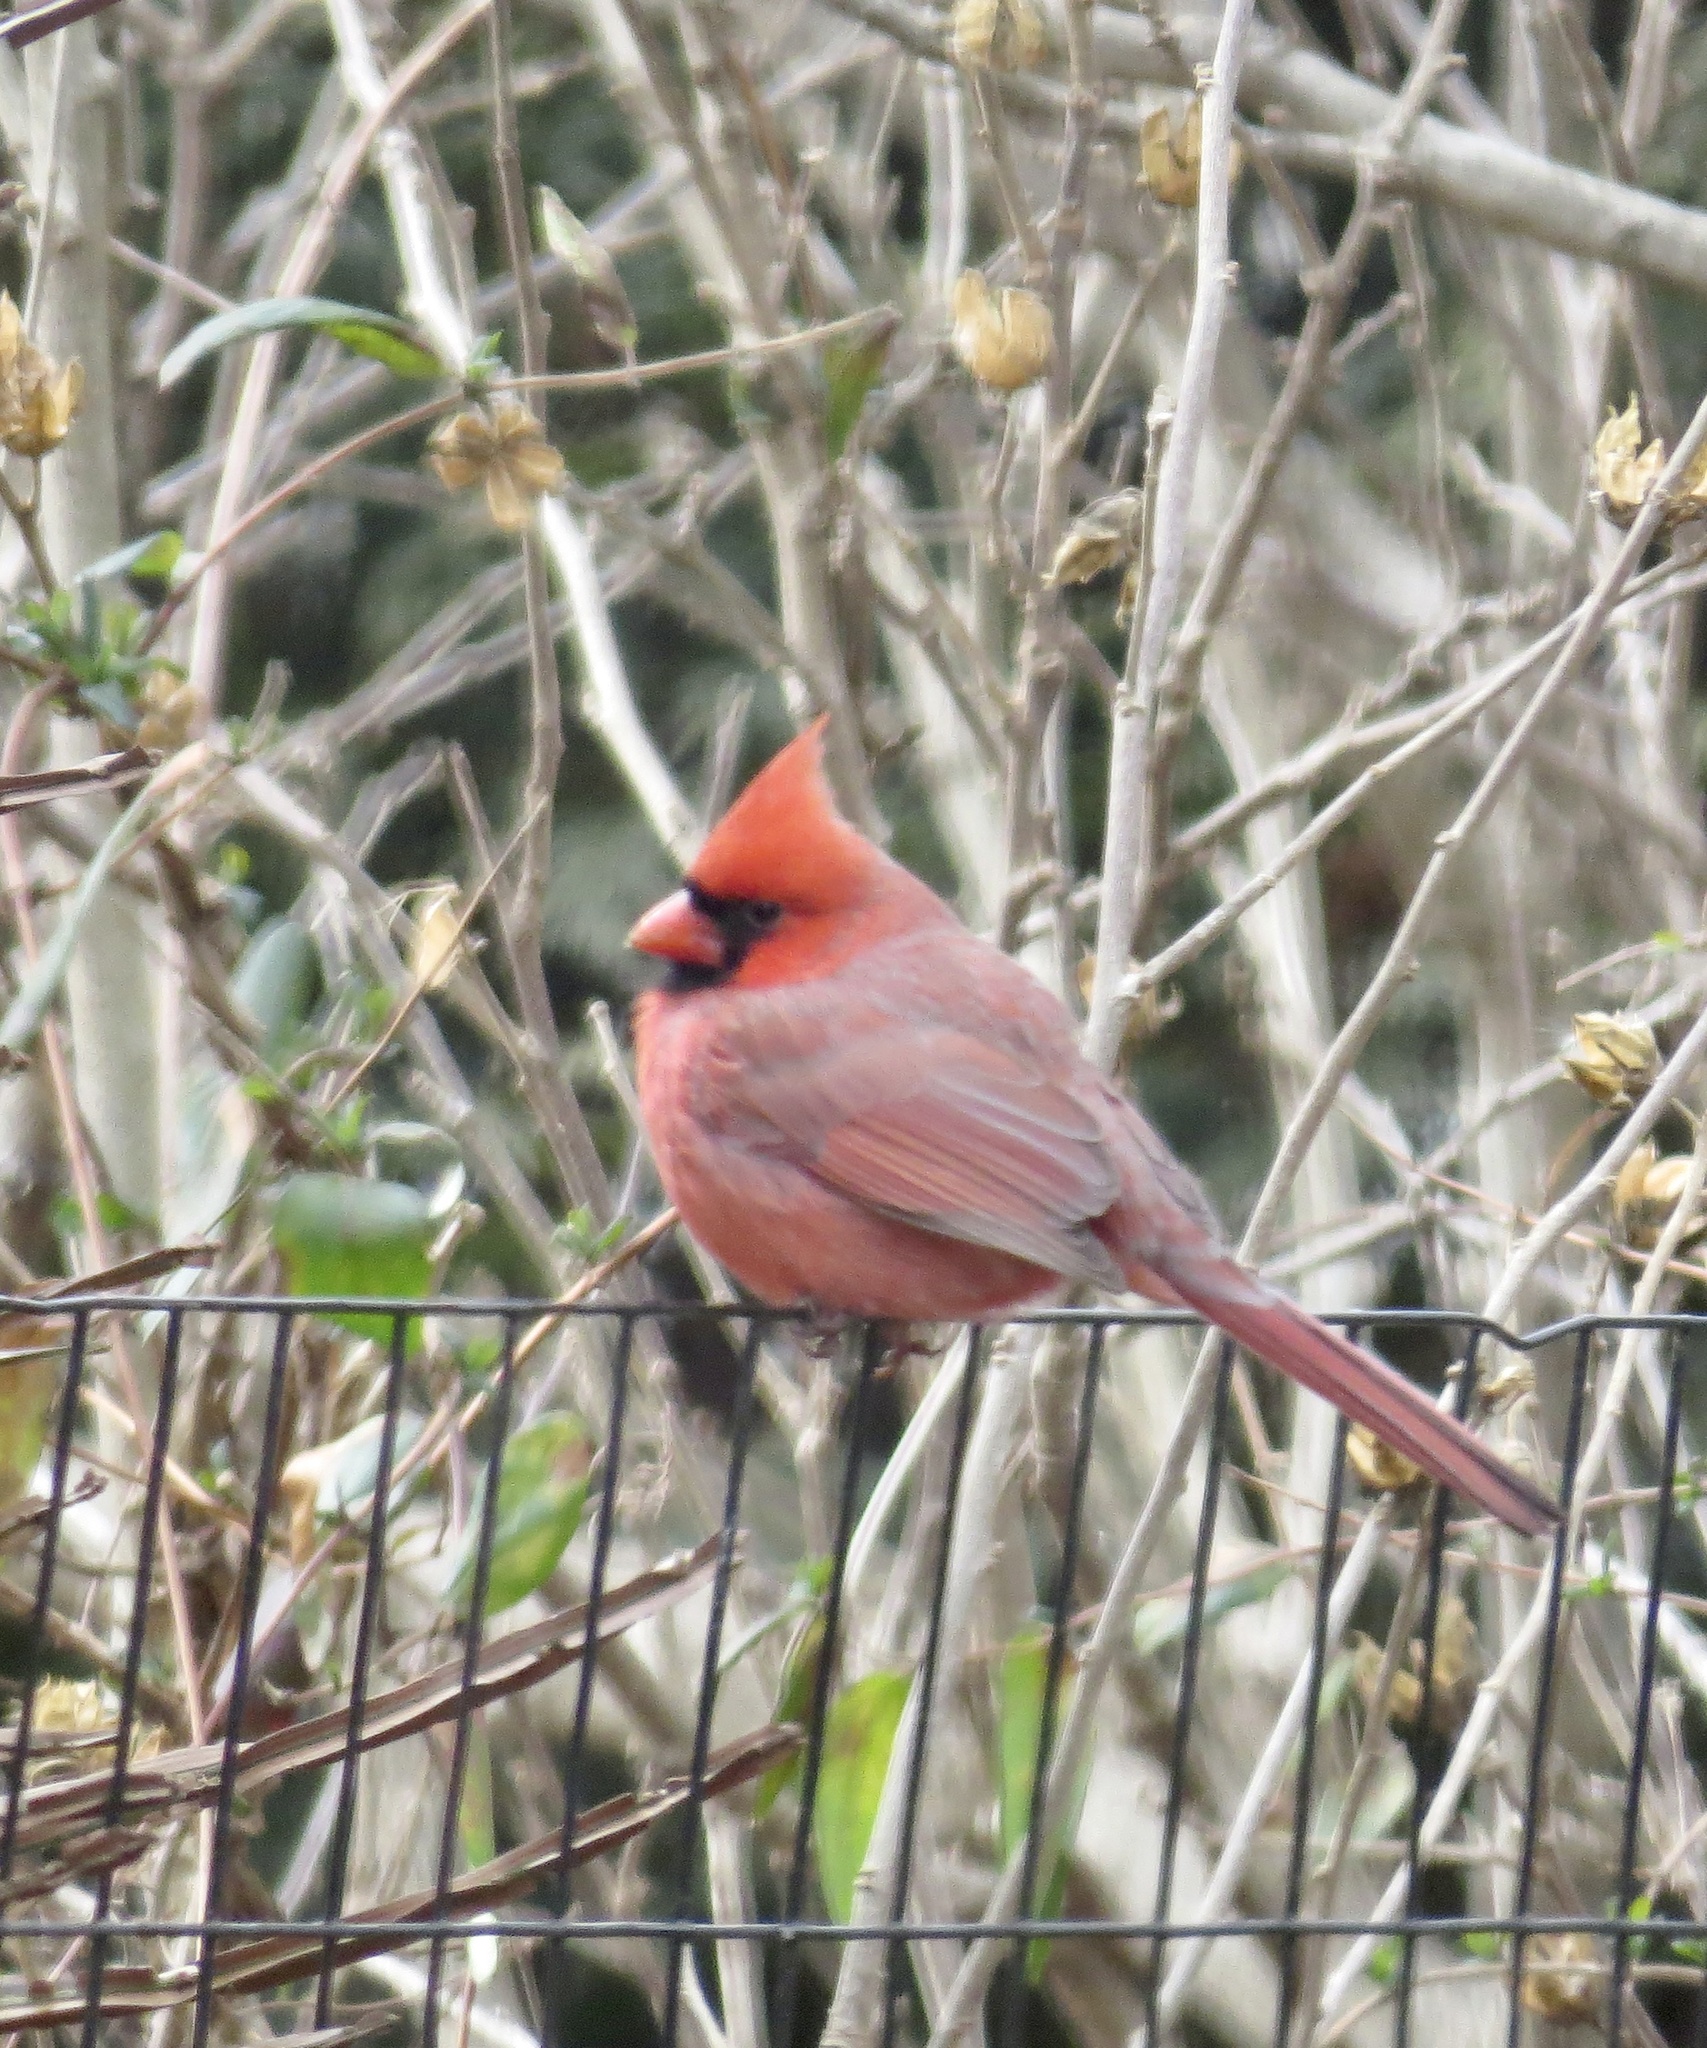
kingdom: Animalia
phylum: Chordata
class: Aves
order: Passeriformes
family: Cardinalidae
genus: Cardinalis
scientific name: Cardinalis cardinalis
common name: Northern cardinal
